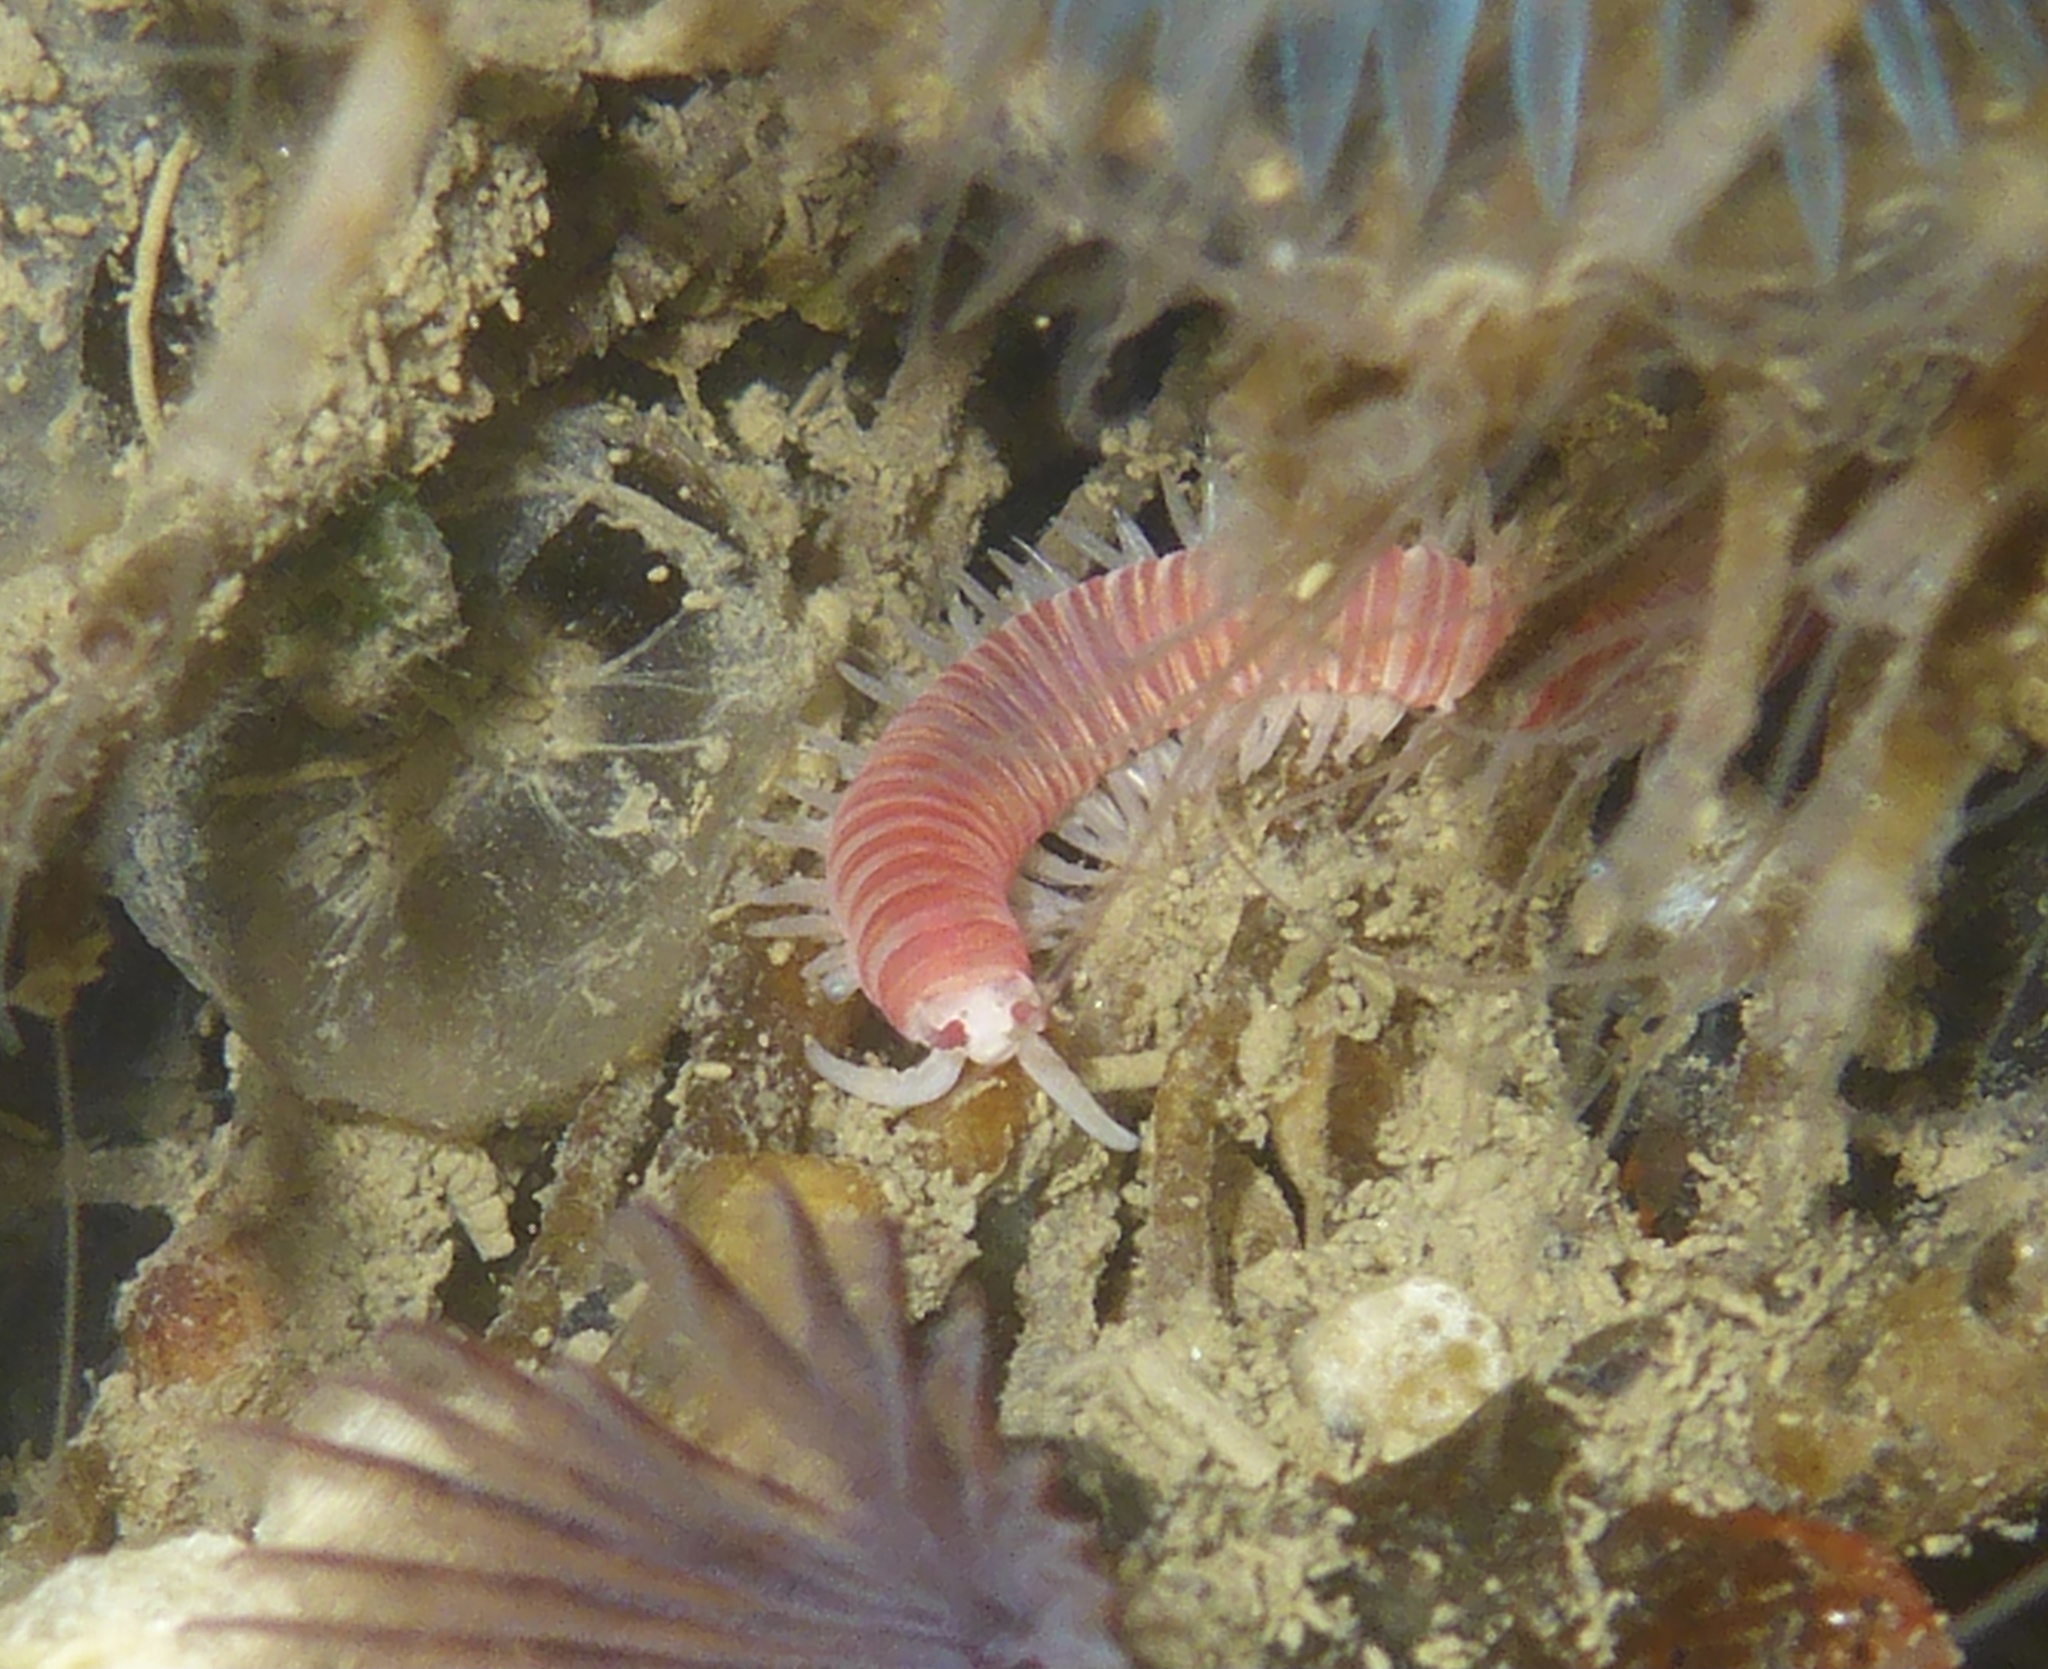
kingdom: Animalia
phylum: Annelida
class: Polychaeta
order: Eunicida
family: Dorvilleidae
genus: Dorvillea
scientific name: Dorvillea moniloceras
